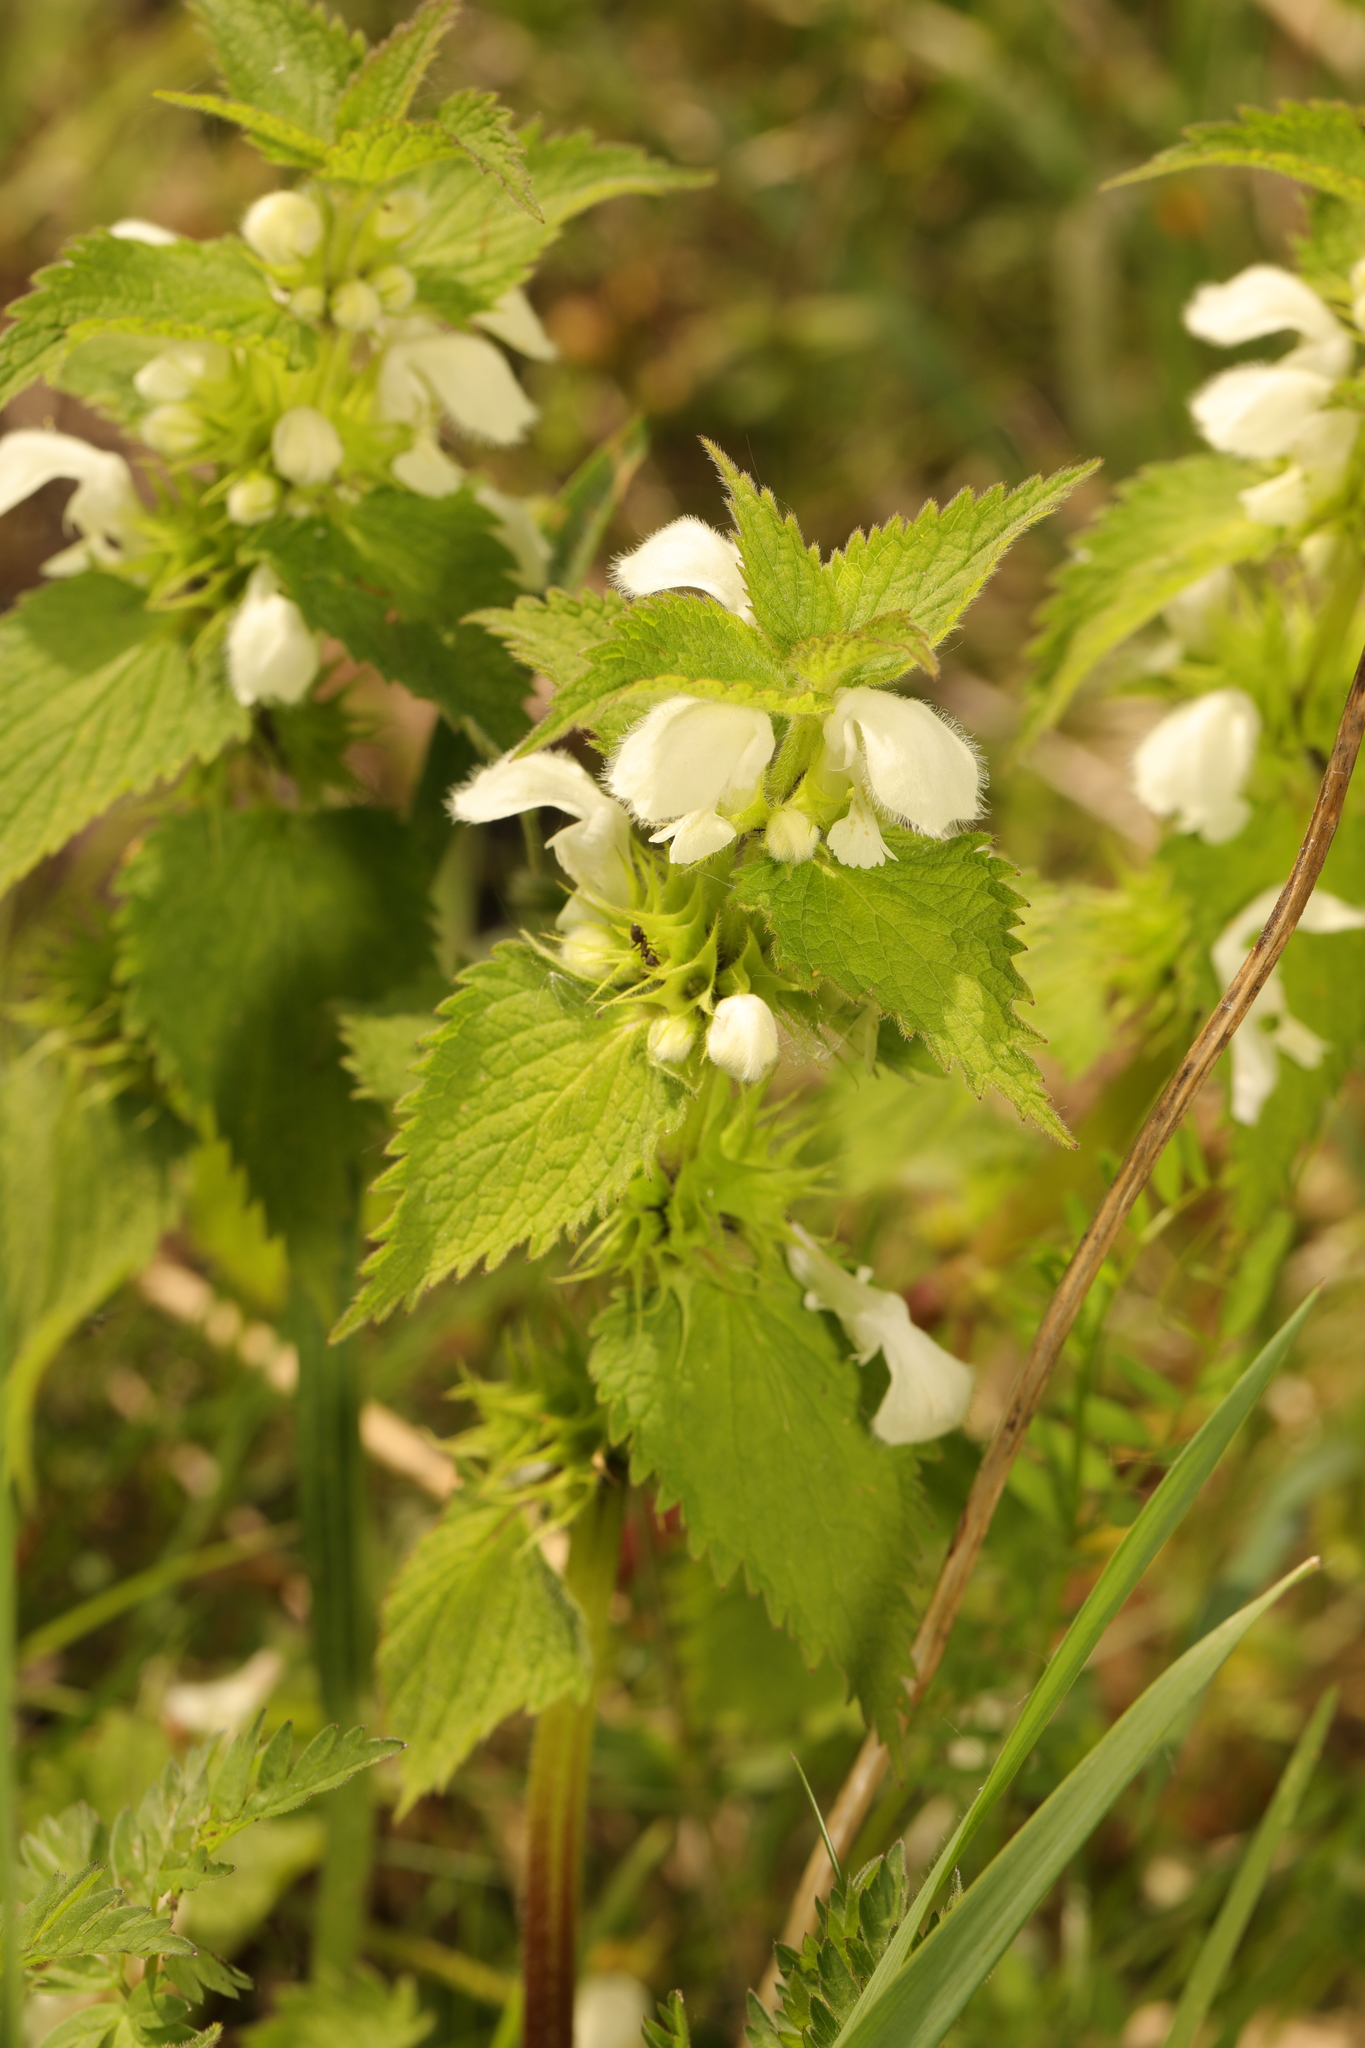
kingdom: Plantae
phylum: Tracheophyta
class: Magnoliopsida
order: Lamiales
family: Lamiaceae
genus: Lamium
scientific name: Lamium album
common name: White dead-nettle
